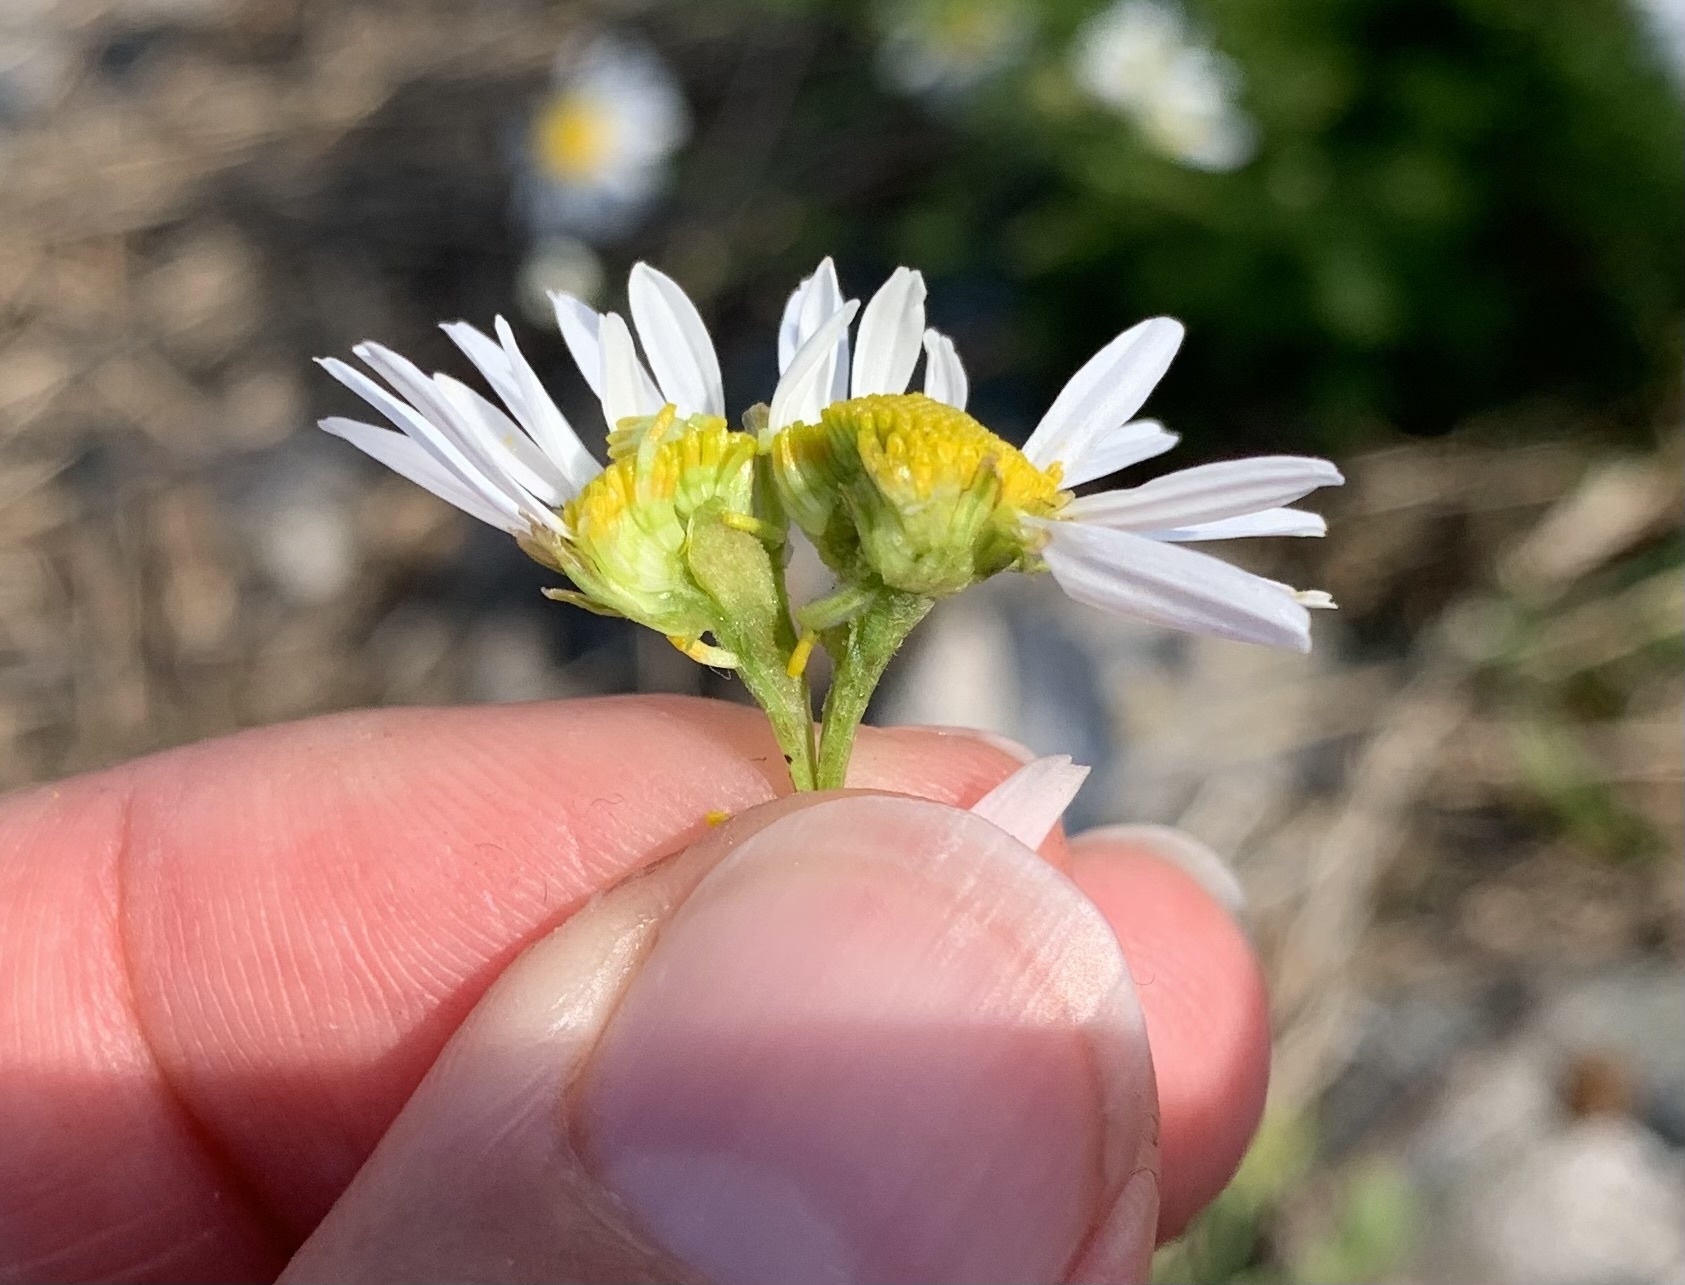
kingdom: Plantae
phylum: Tracheophyta
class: Magnoliopsida
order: Asterales
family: Asteraceae
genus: Tripleurospermum
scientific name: Tripleurospermum inodorum
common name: Scentless mayweed
